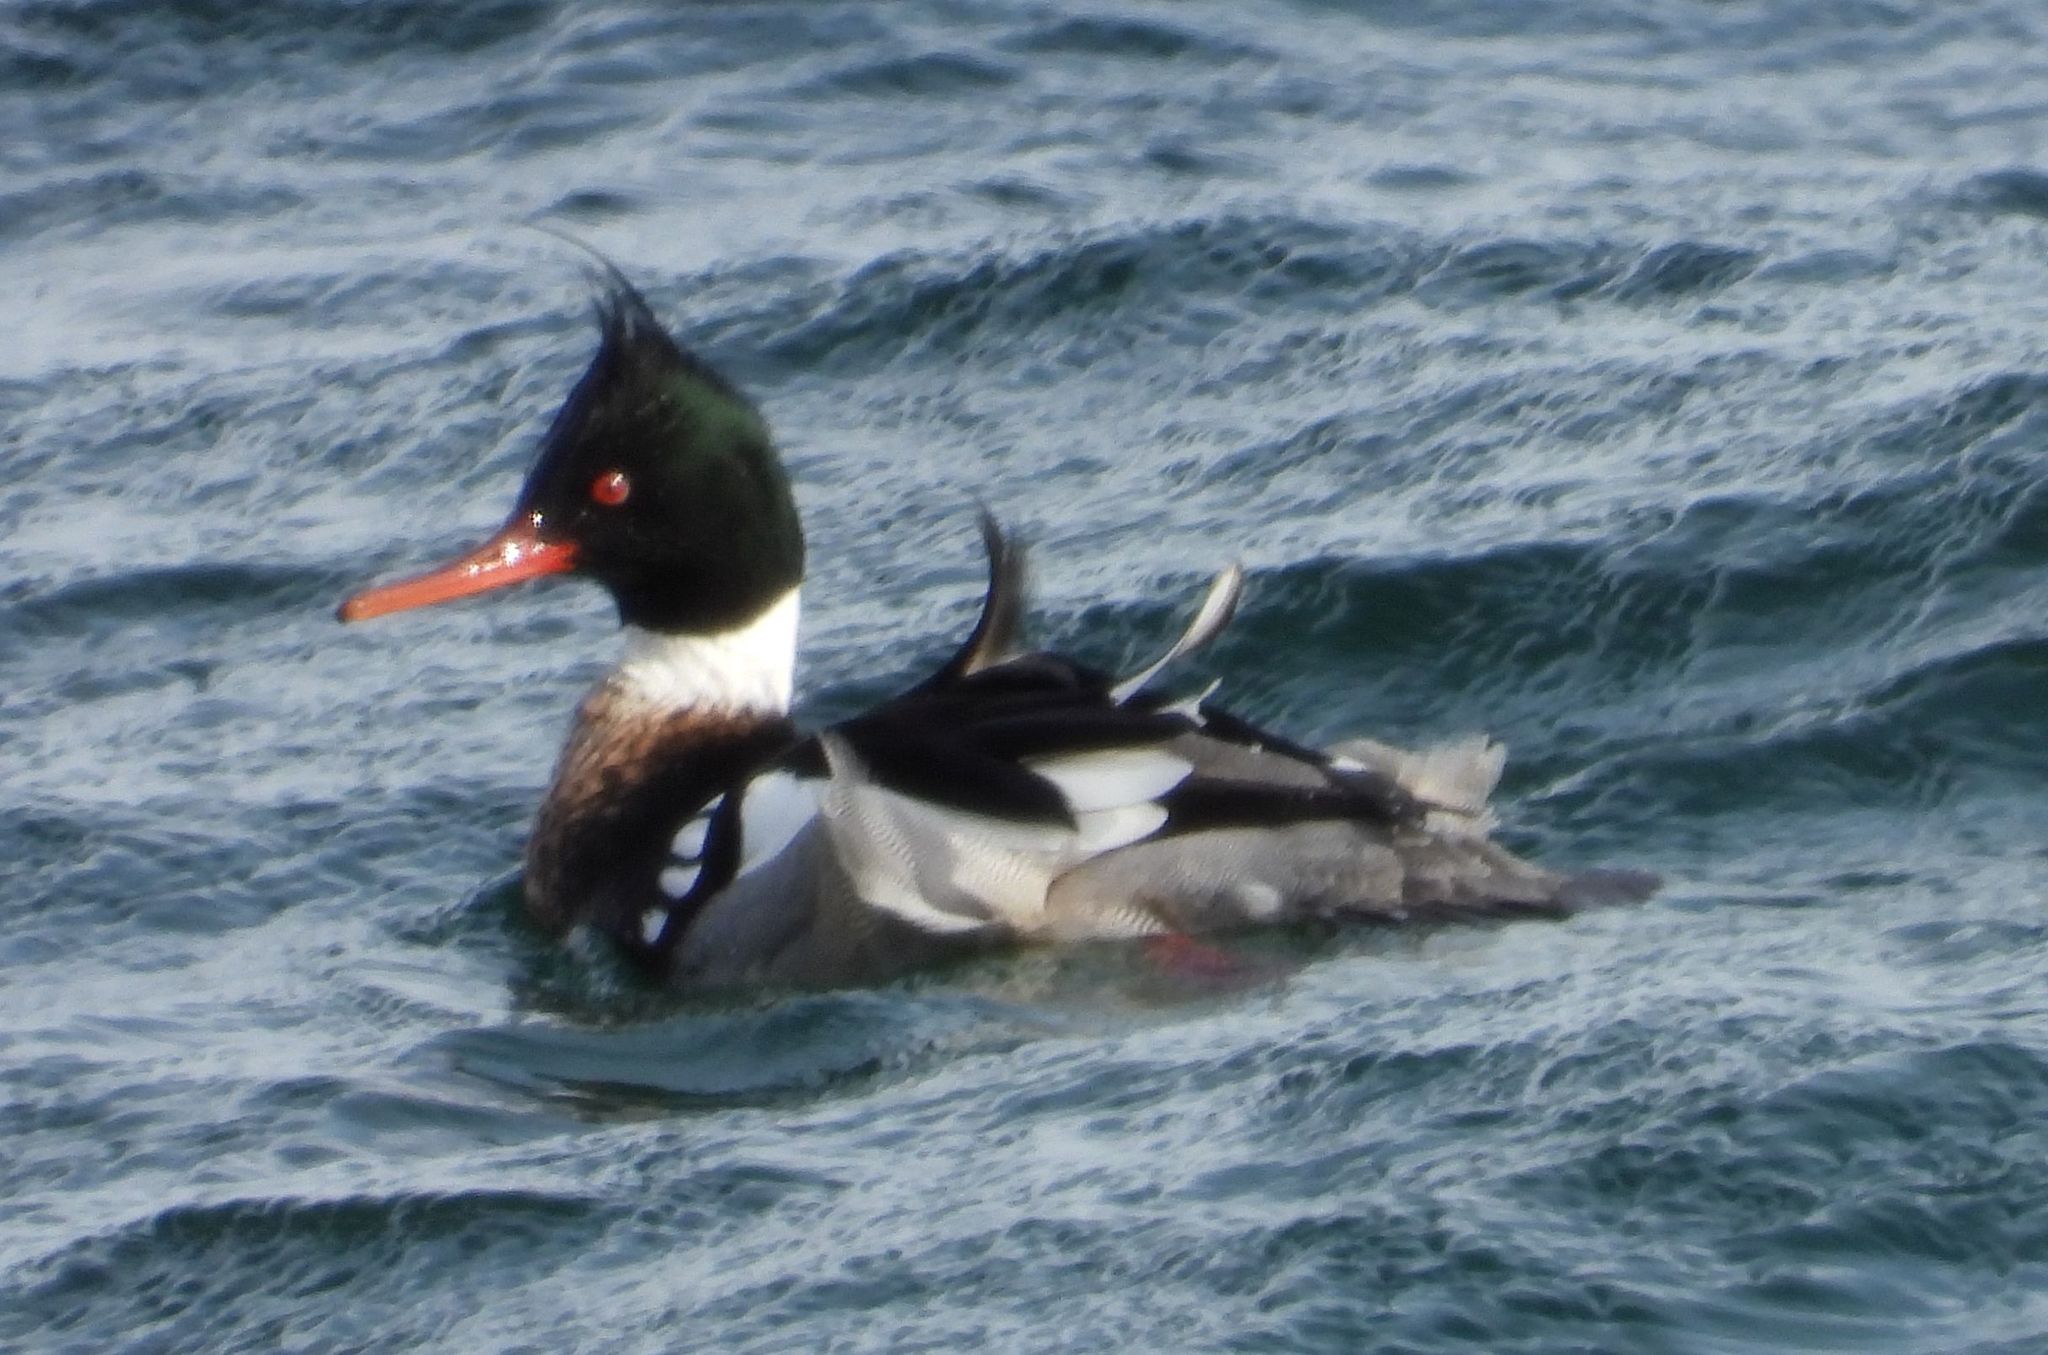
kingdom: Animalia
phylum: Chordata
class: Aves
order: Anseriformes
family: Anatidae
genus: Mergus
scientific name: Mergus serrator
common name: Red-breasted merganser
